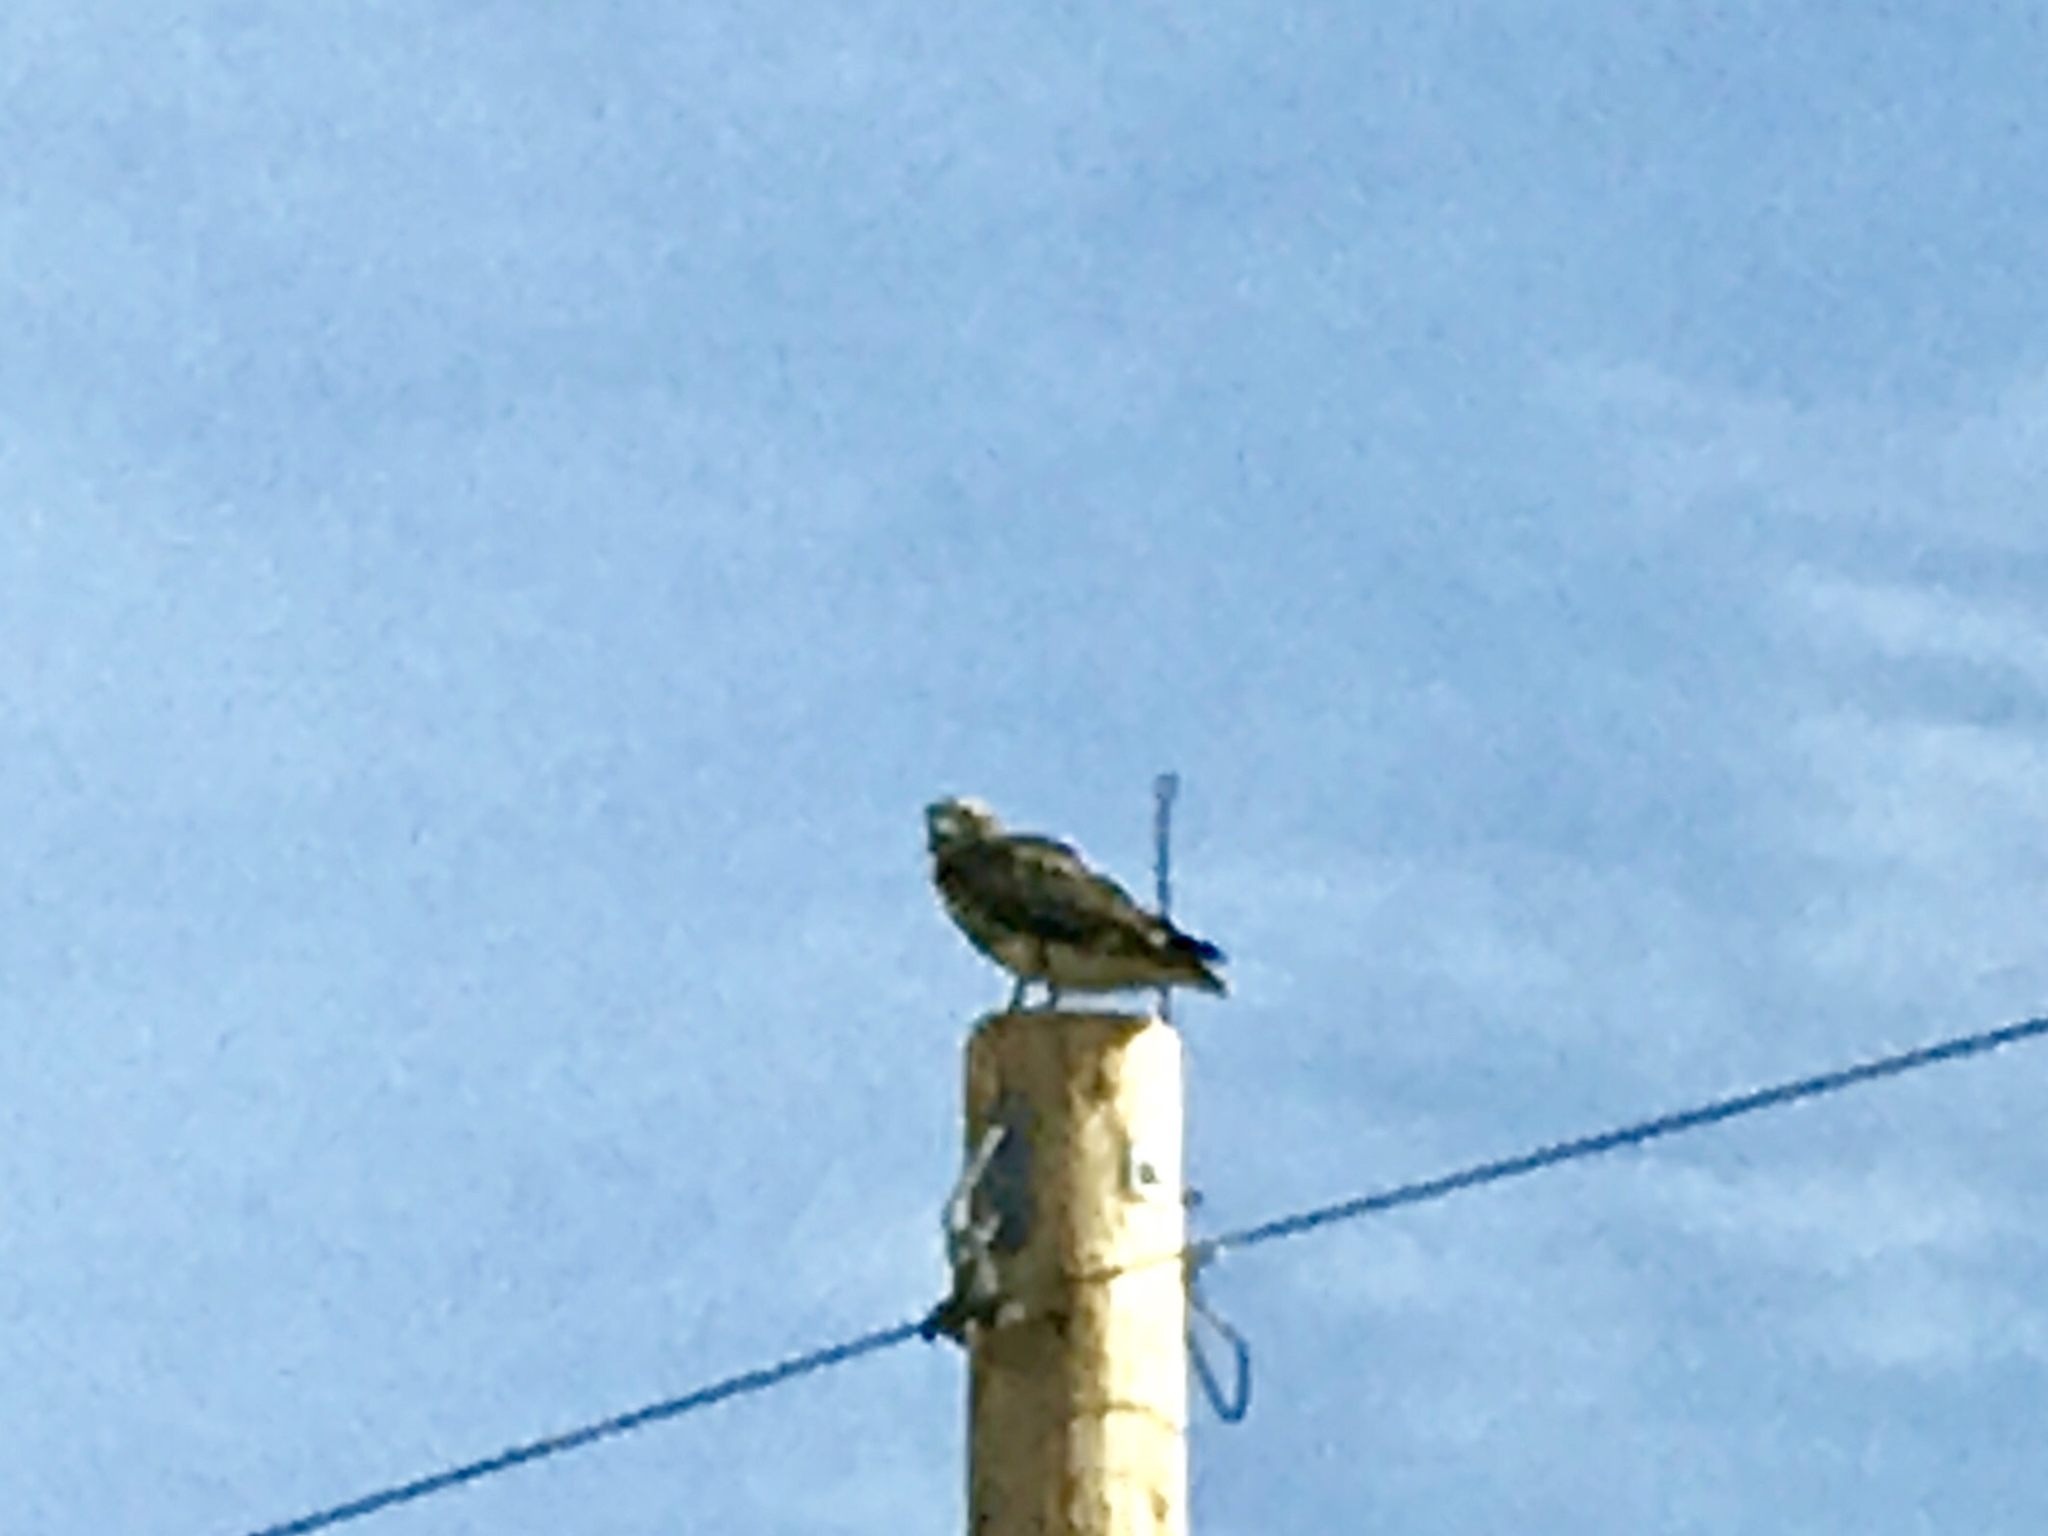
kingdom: Animalia
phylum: Chordata
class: Aves
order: Accipitriformes
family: Accipitridae
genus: Buteo
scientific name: Buteo jamaicensis
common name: Red-tailed hawk
